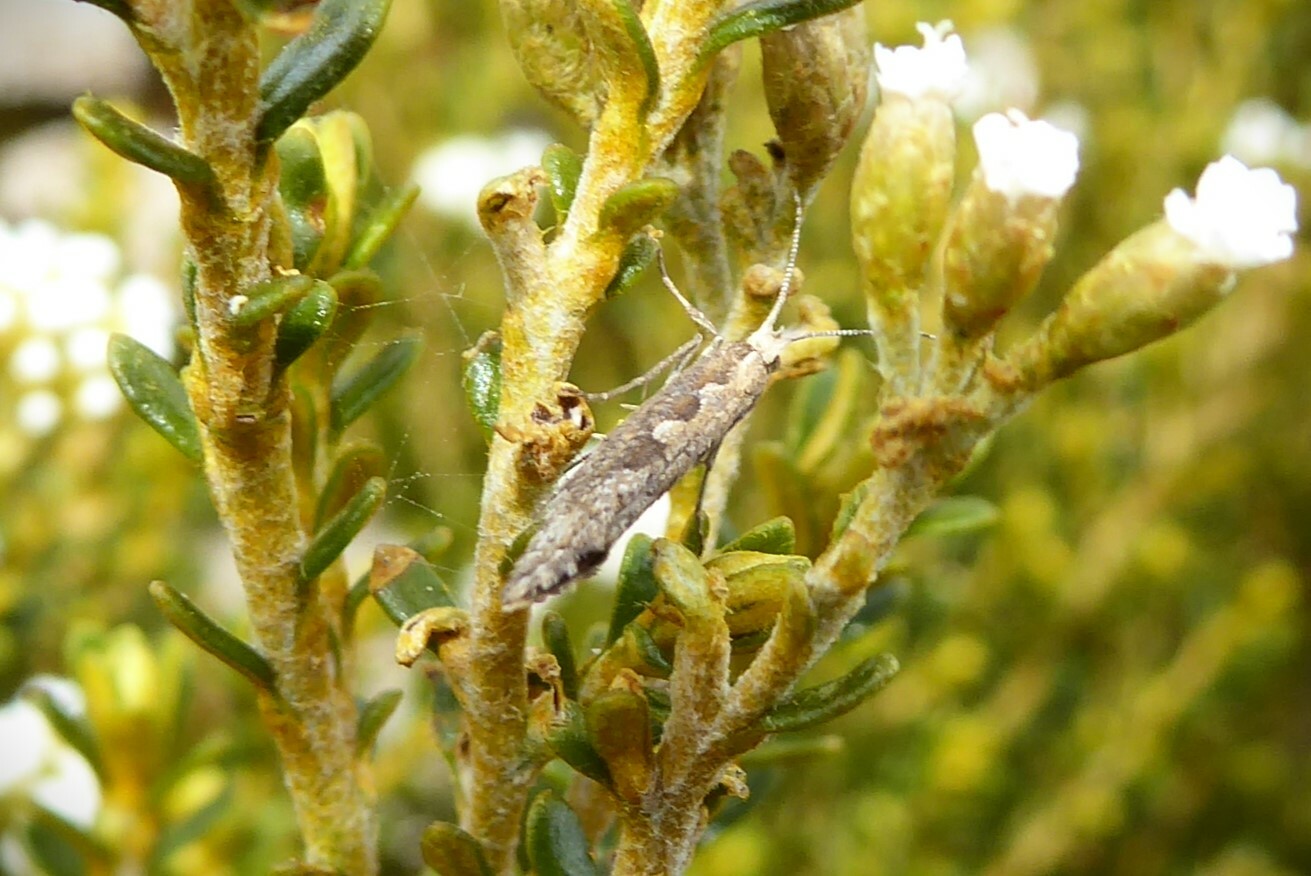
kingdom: Animalia
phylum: Arthropoda
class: Insecta
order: Lepidoptera
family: Plutellidae
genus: Plutella
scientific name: Plutella xylostella
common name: Diamond-back moth
